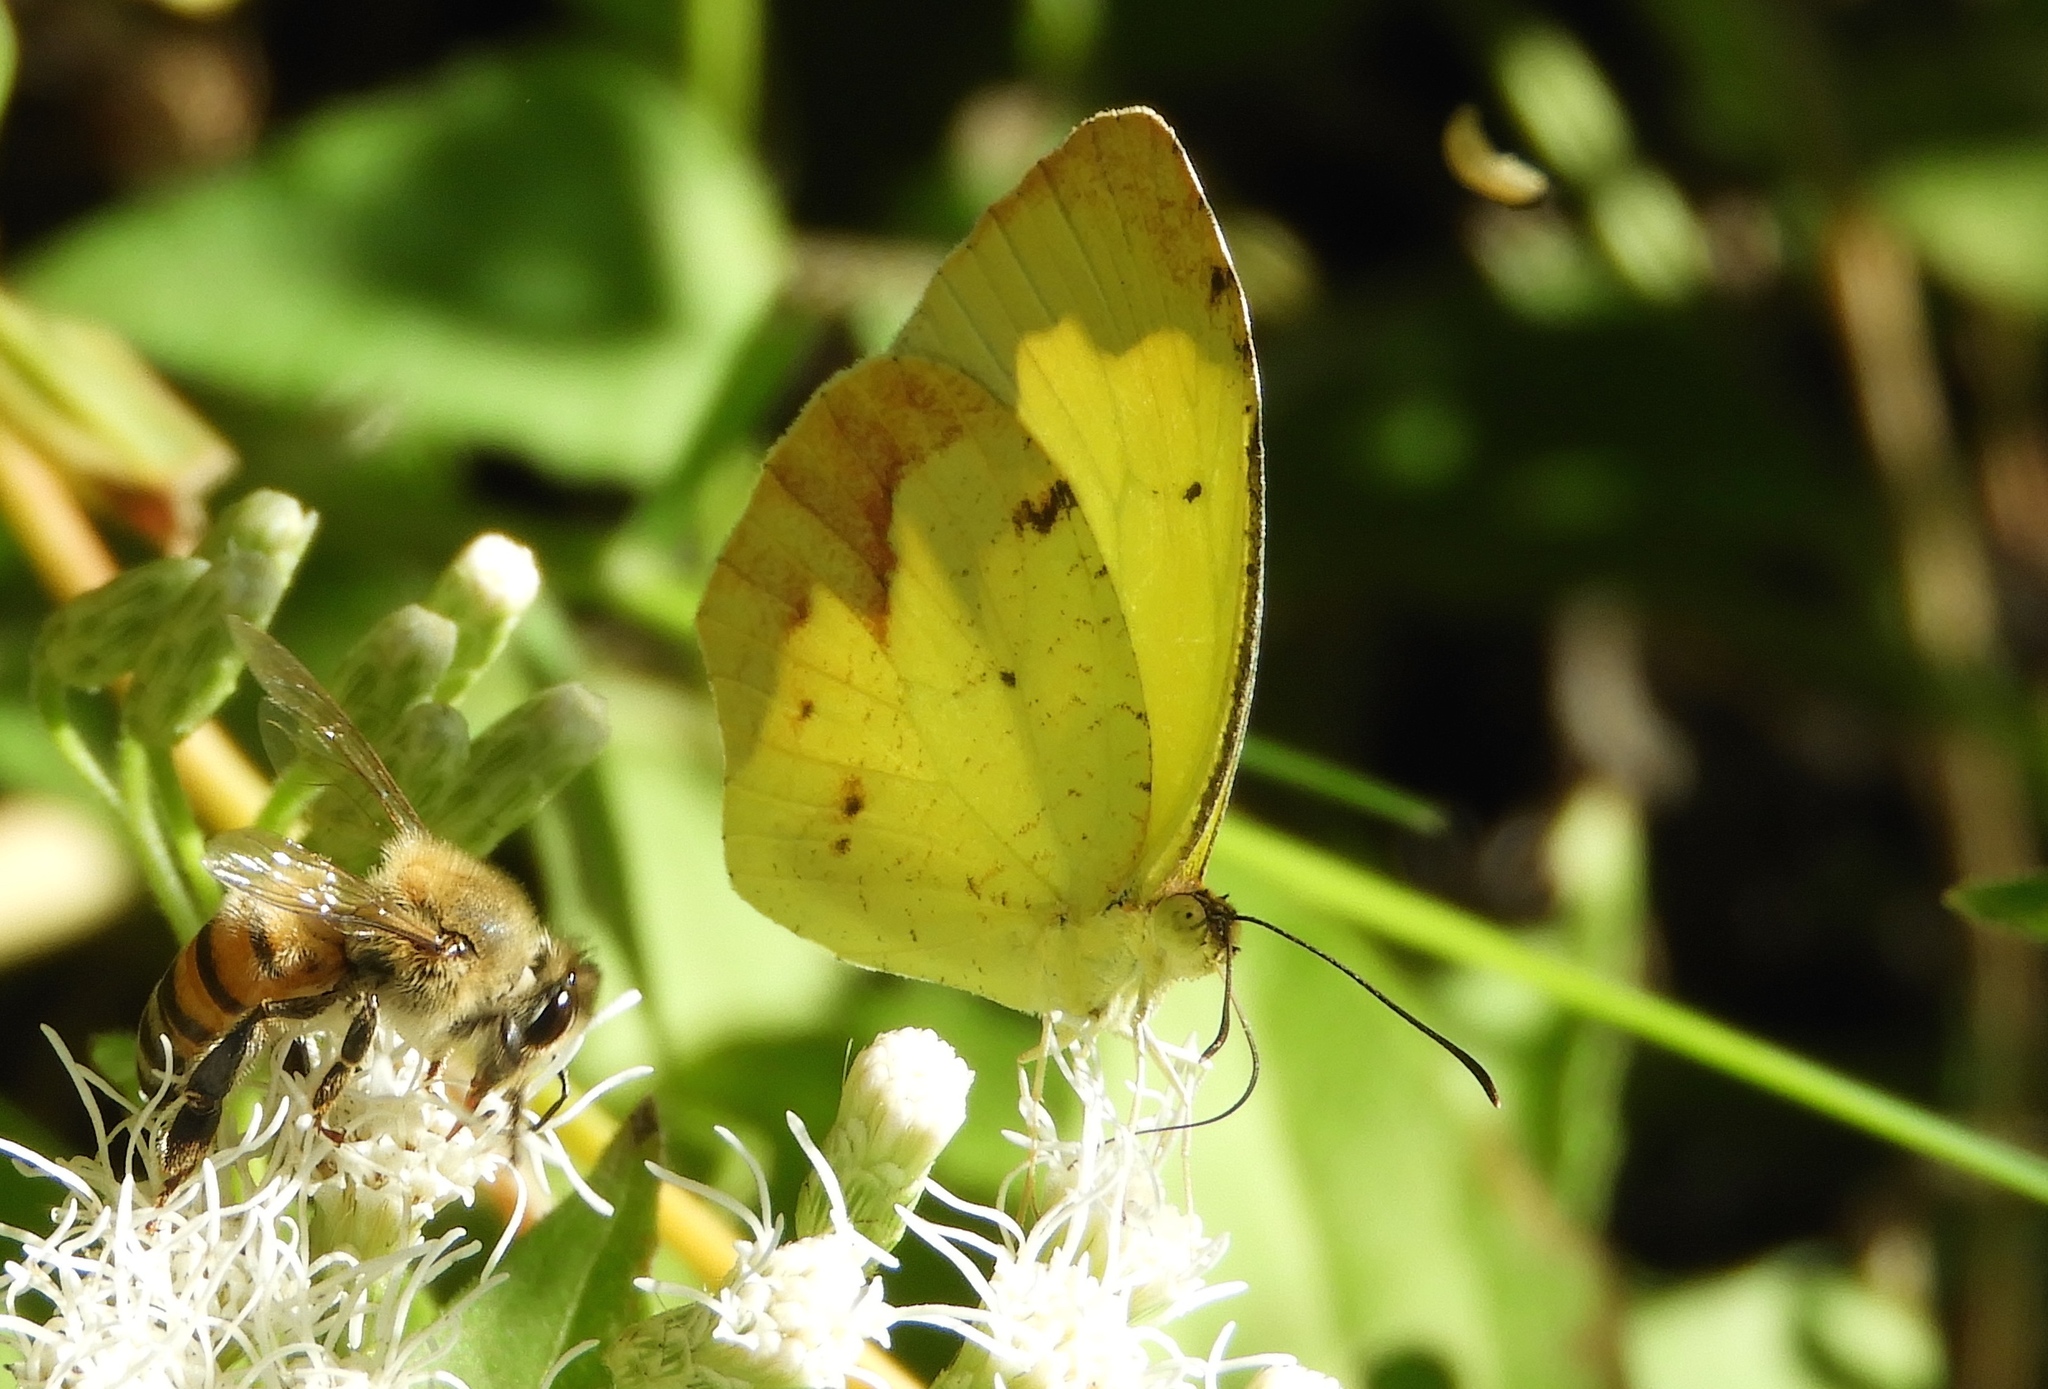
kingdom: Animalia
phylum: Arthropoda
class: Insecta
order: Lepidoptera
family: Pieridae
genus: Abaeis
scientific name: Abaeis boisduvaliana
